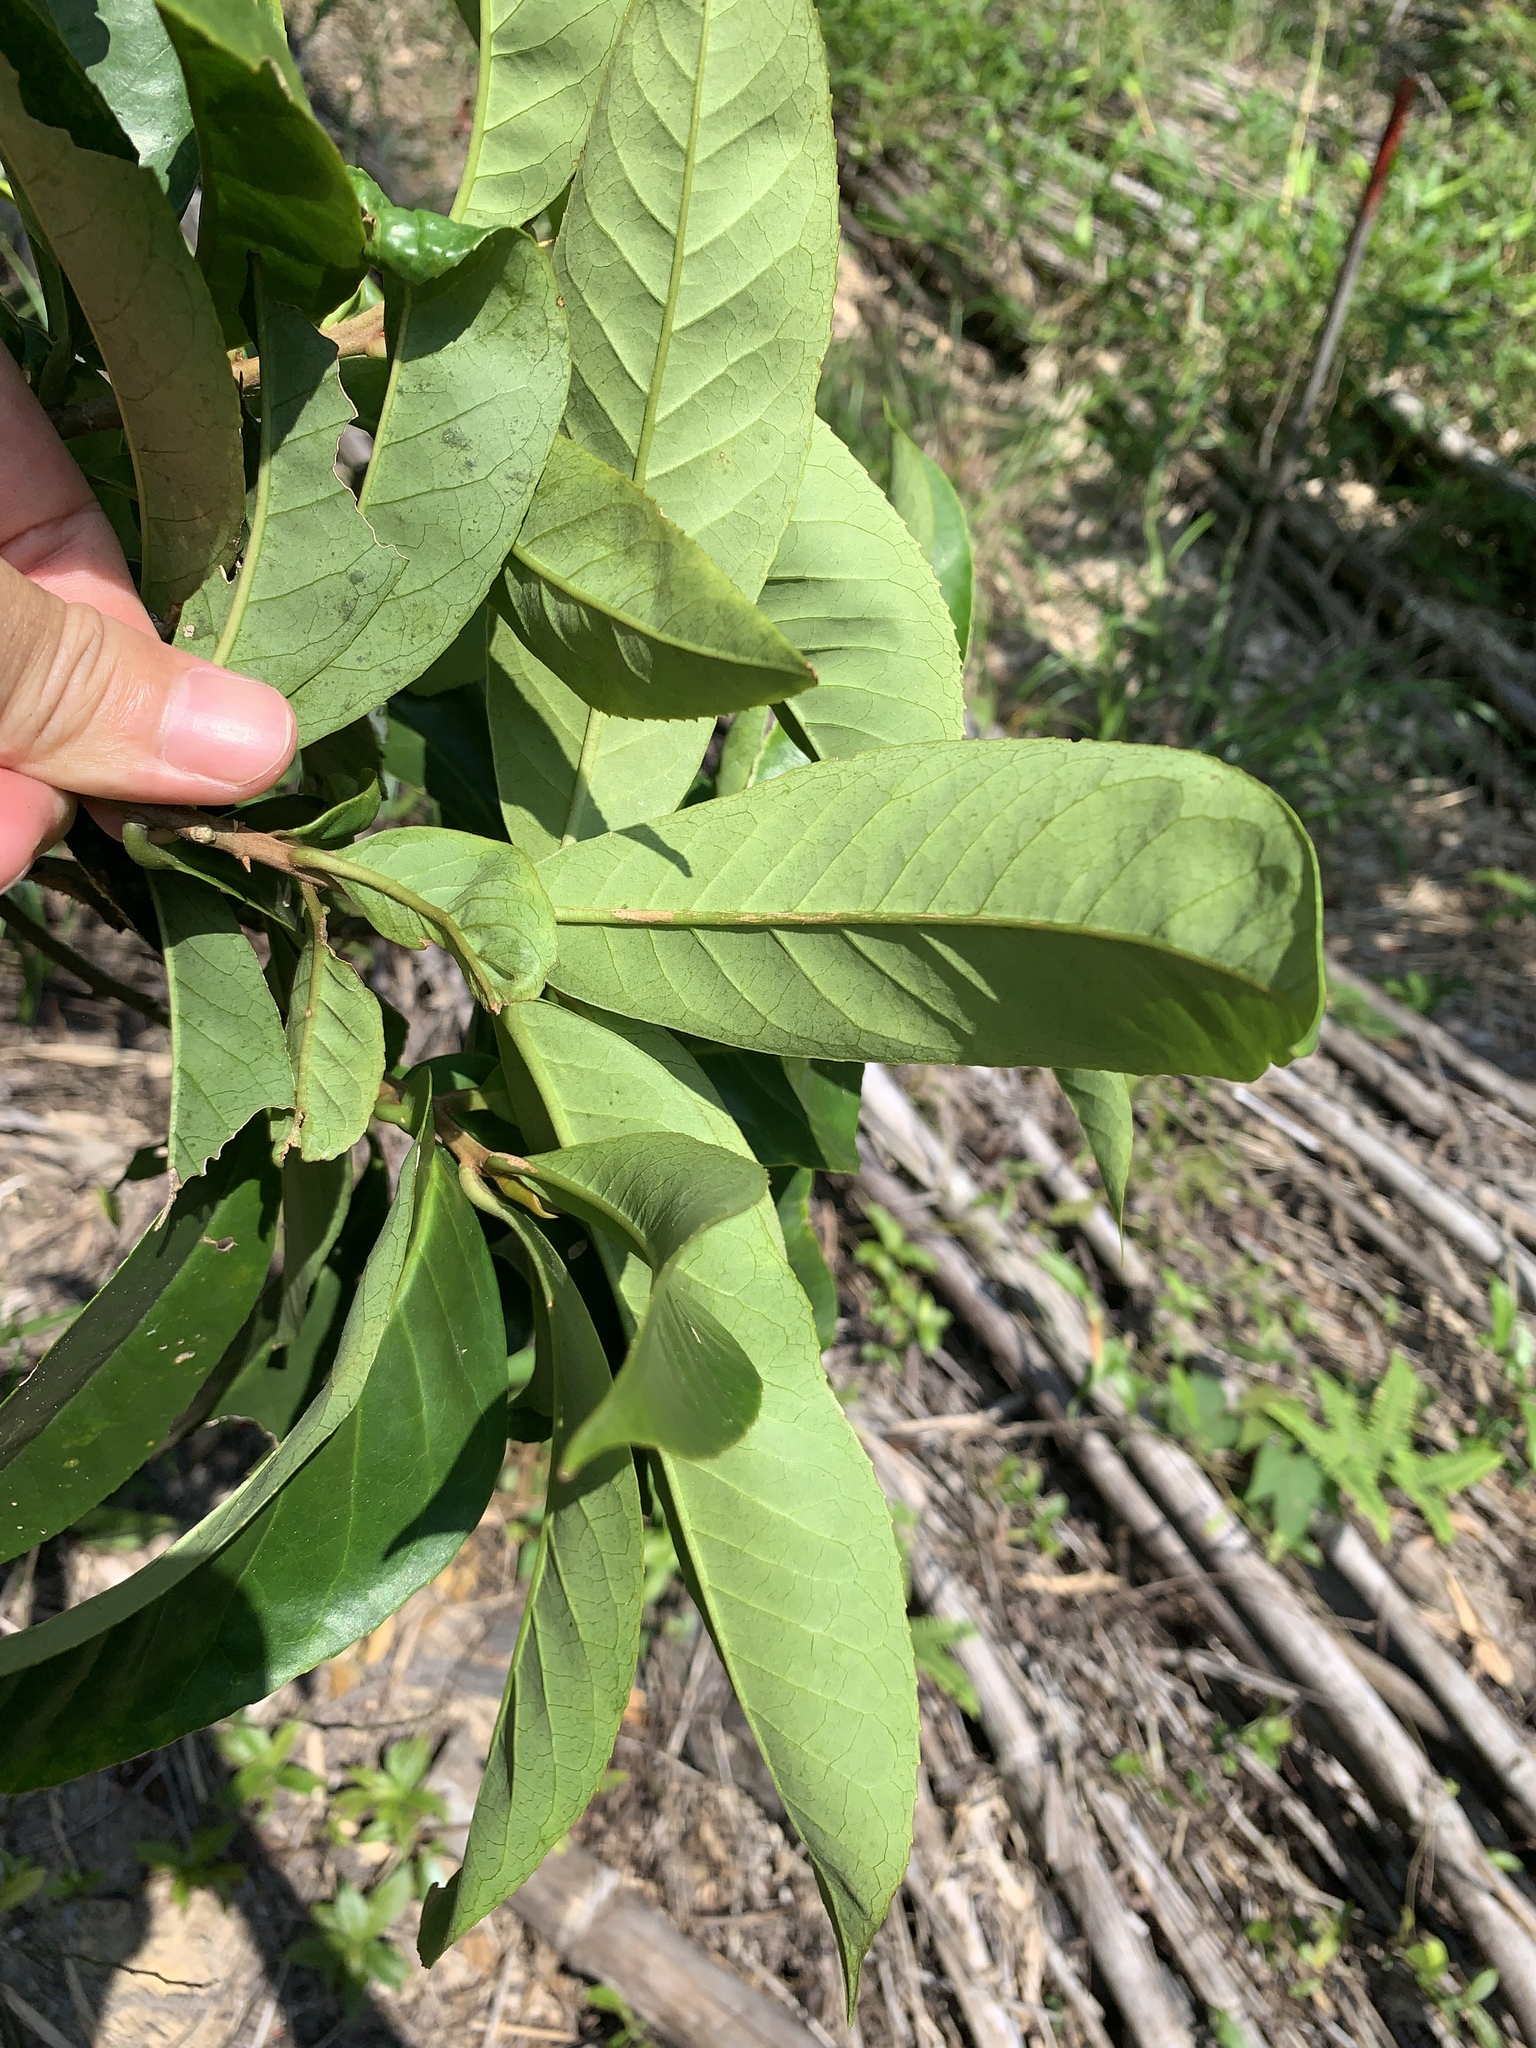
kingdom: Plantae
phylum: Tracheophyta
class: Magnoliopsida
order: Ericales
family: Symplocaceae
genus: Symplocos
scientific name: Symplocos acuminata
